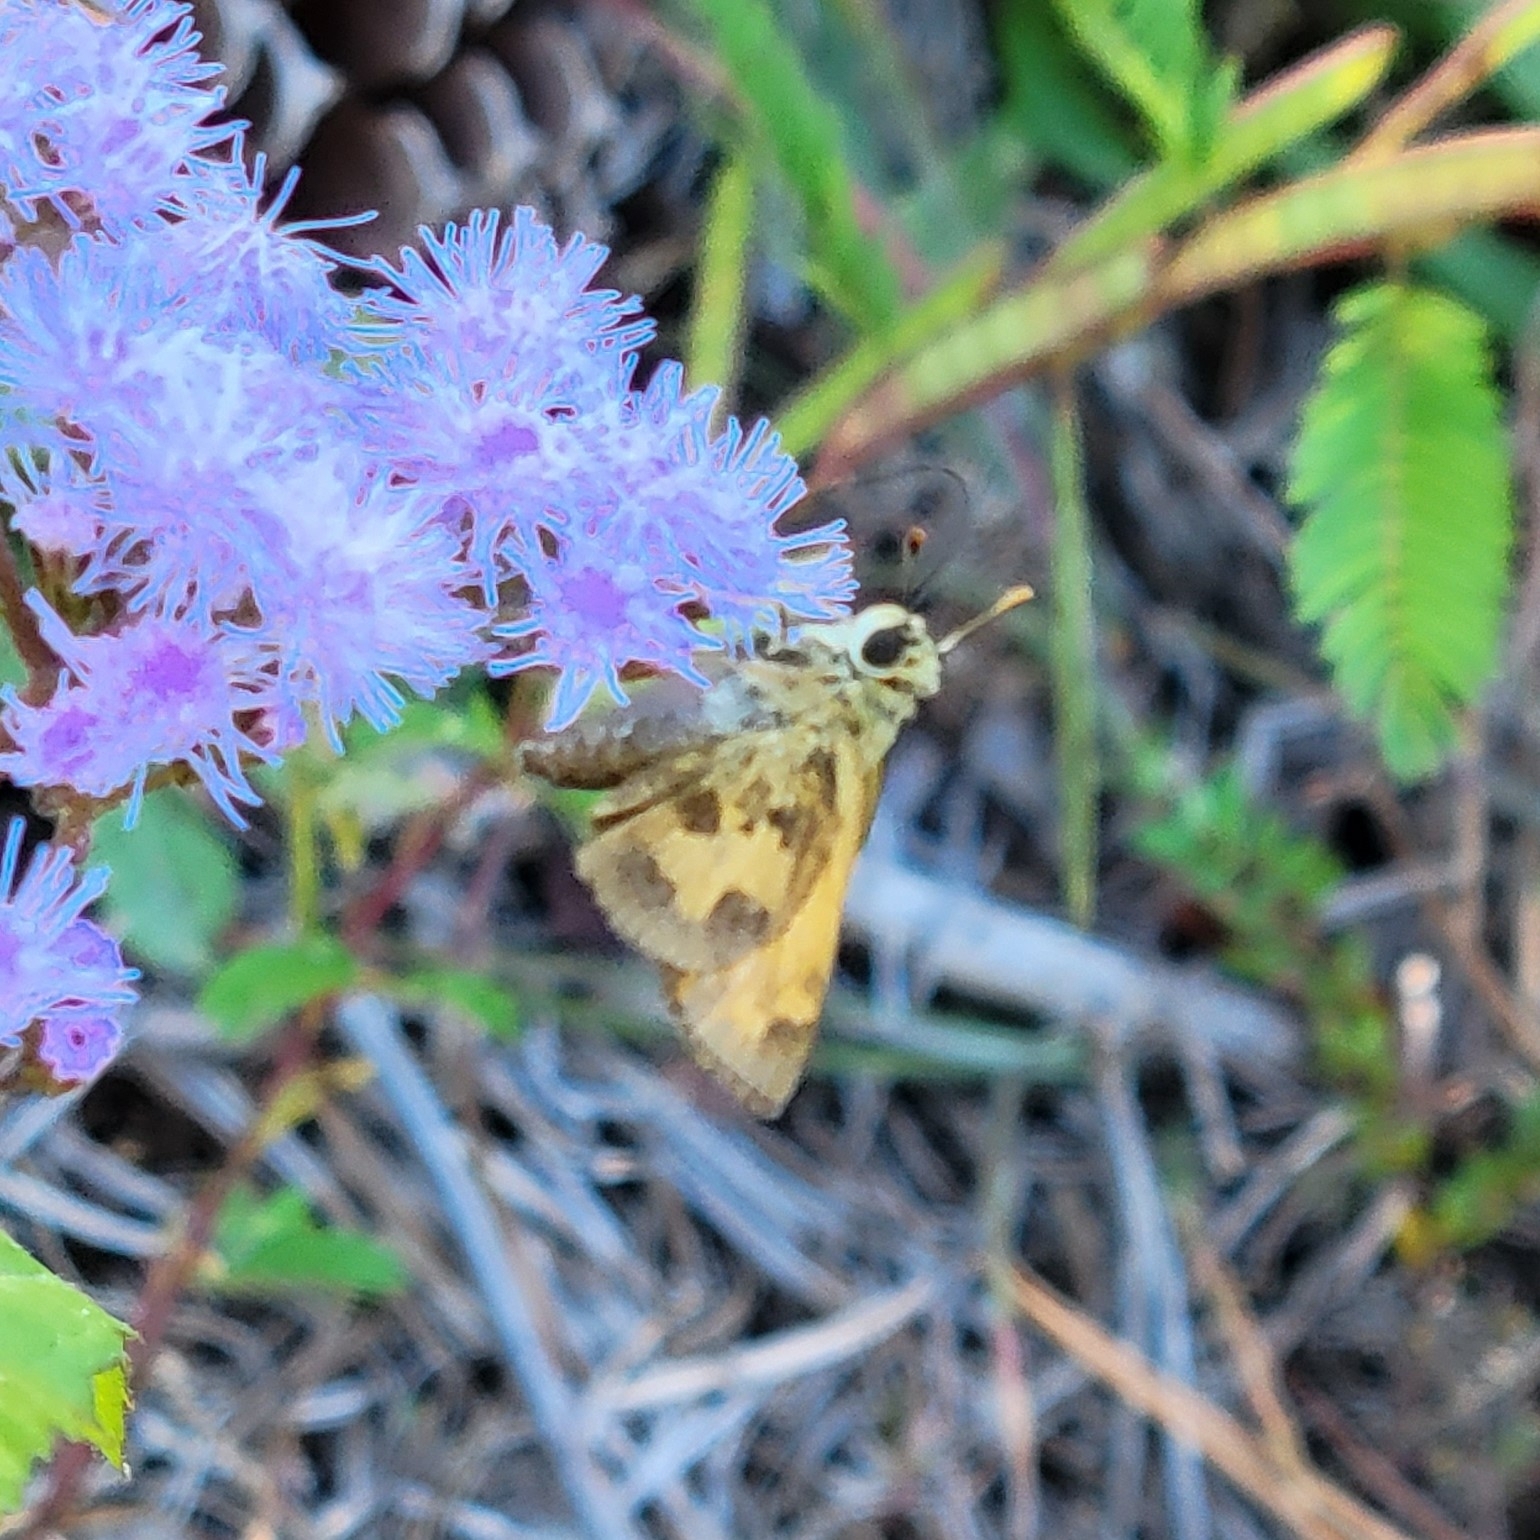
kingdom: Animalia
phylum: Arthropoda
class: Insecta
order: Lepidoptera
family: Hesperiidae
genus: Polites
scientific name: Polites vibex
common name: Whirlabout
